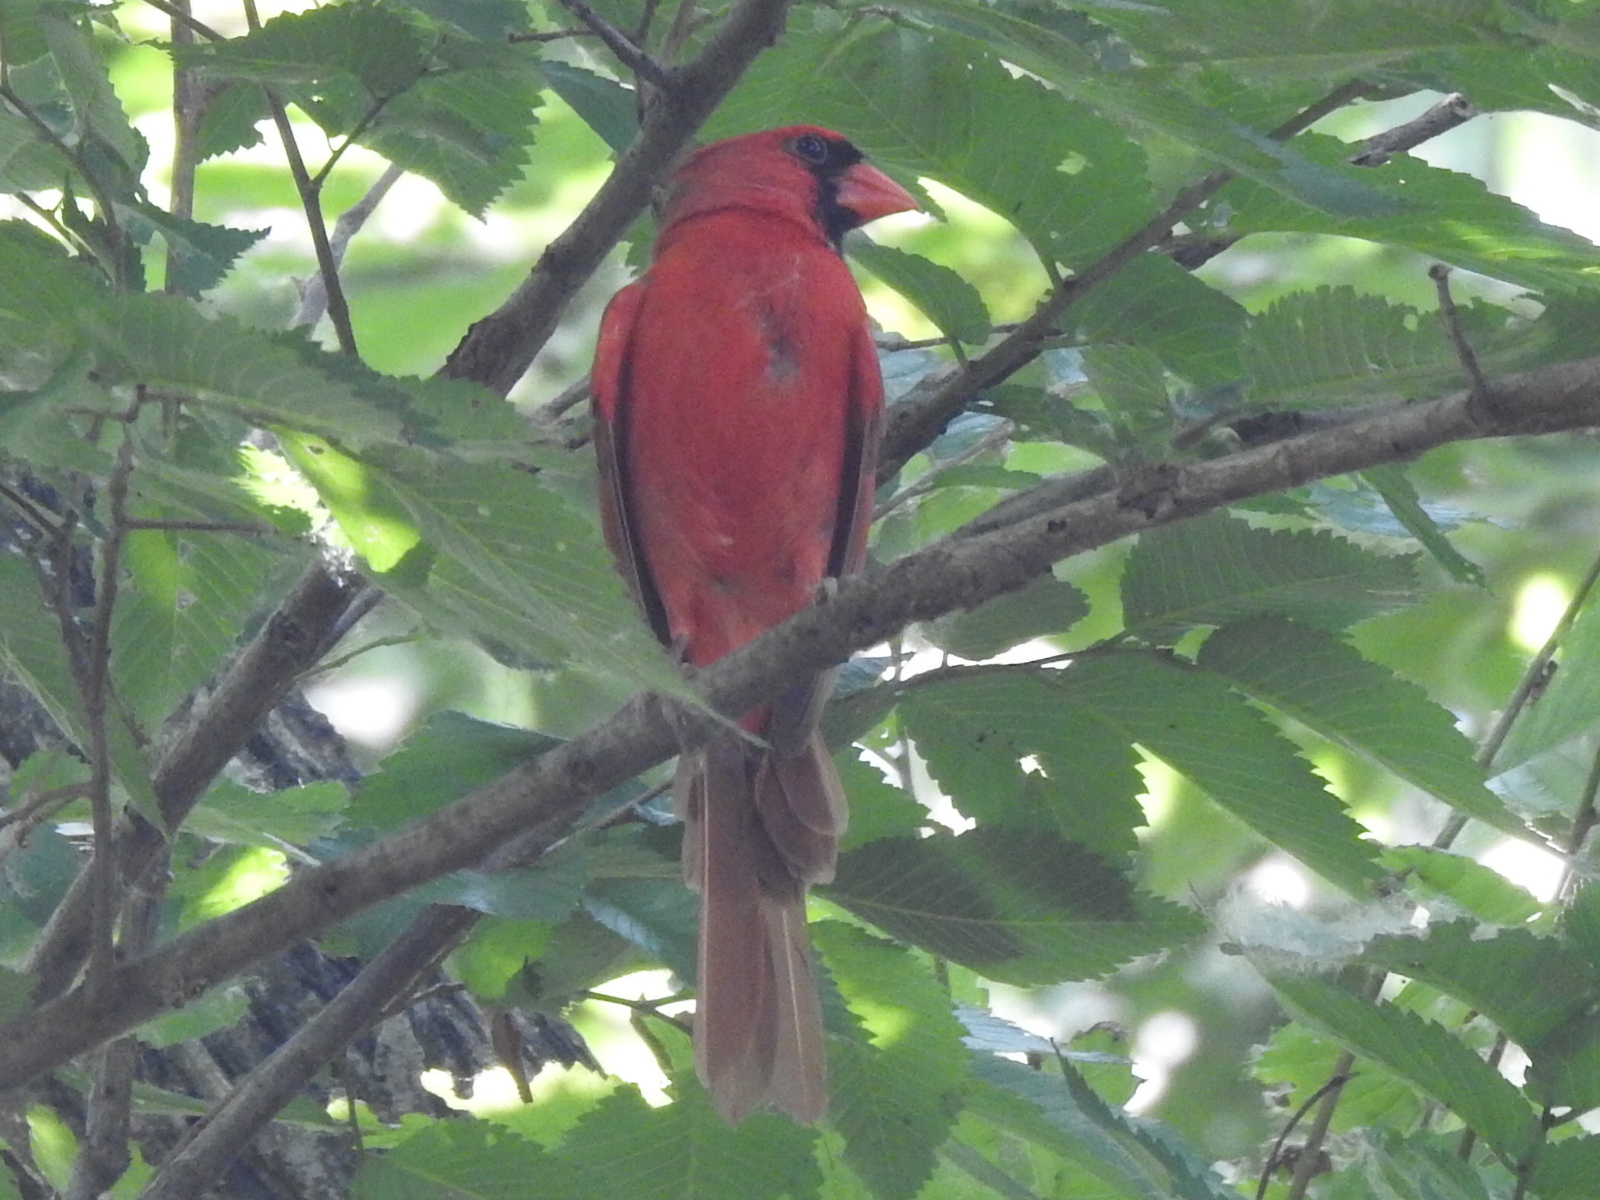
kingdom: Animalia
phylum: Chordata
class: Aves
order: Passeriformes
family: Cardinalidae
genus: Cardinalis
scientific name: Cardinalis cardinalis
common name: Northern cardinal
